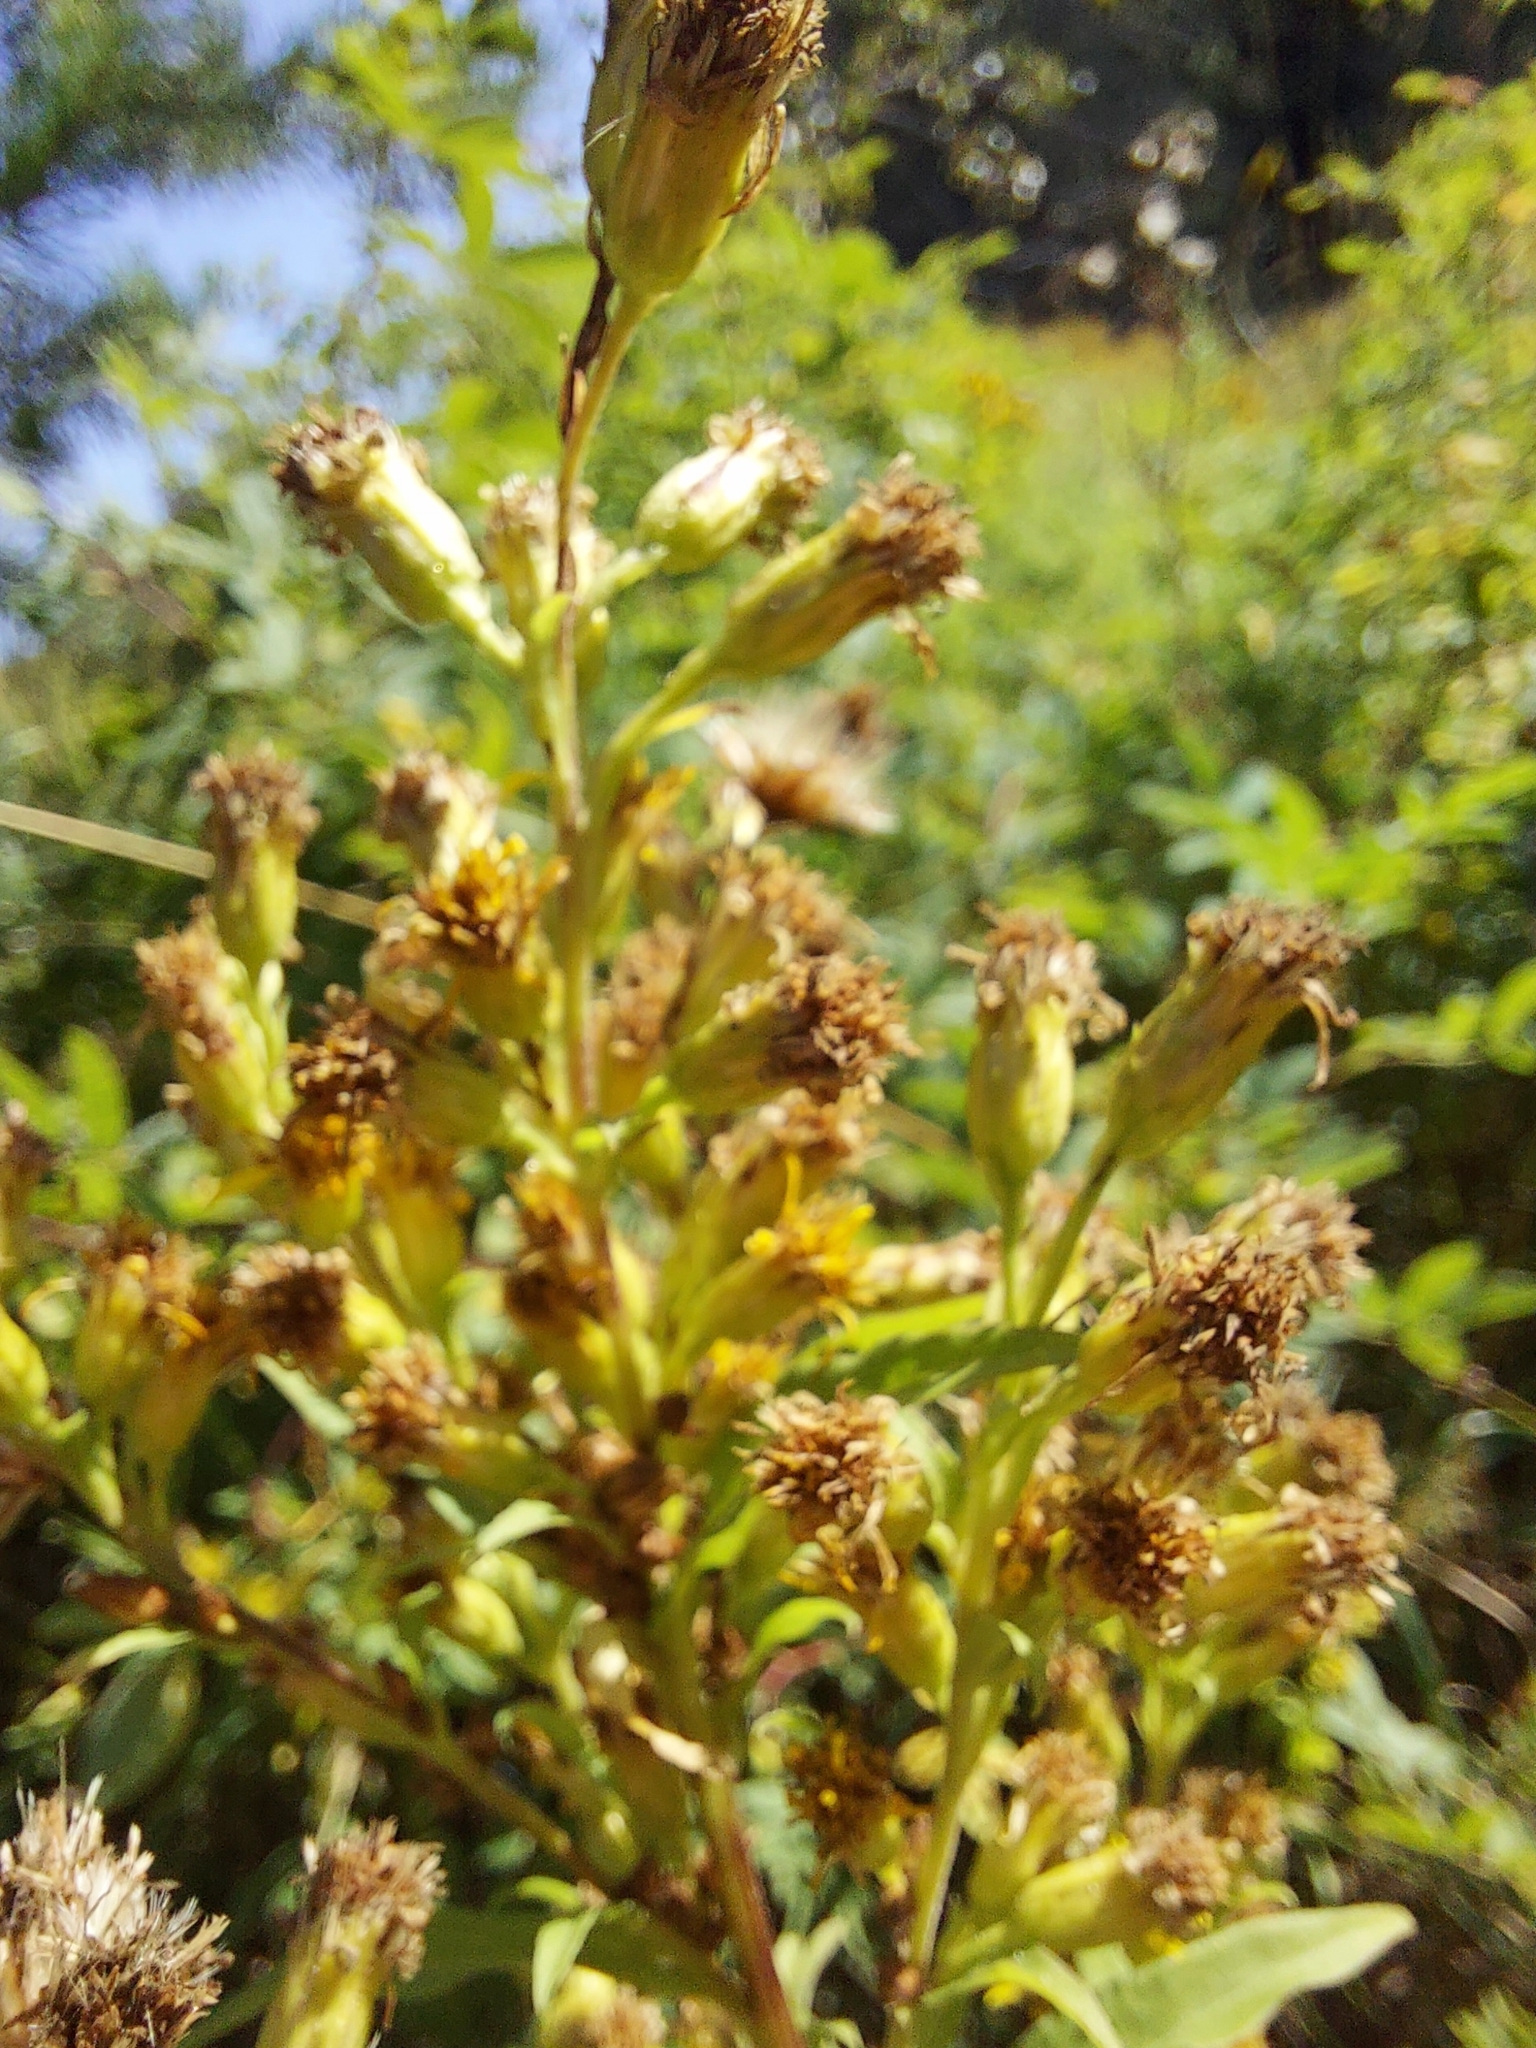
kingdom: Plantae
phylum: Tracheophyta
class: Magnoliopsida
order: Asterales
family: Asteraceae
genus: Solidago
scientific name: Solidago virgaurea
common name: Goldenrod
